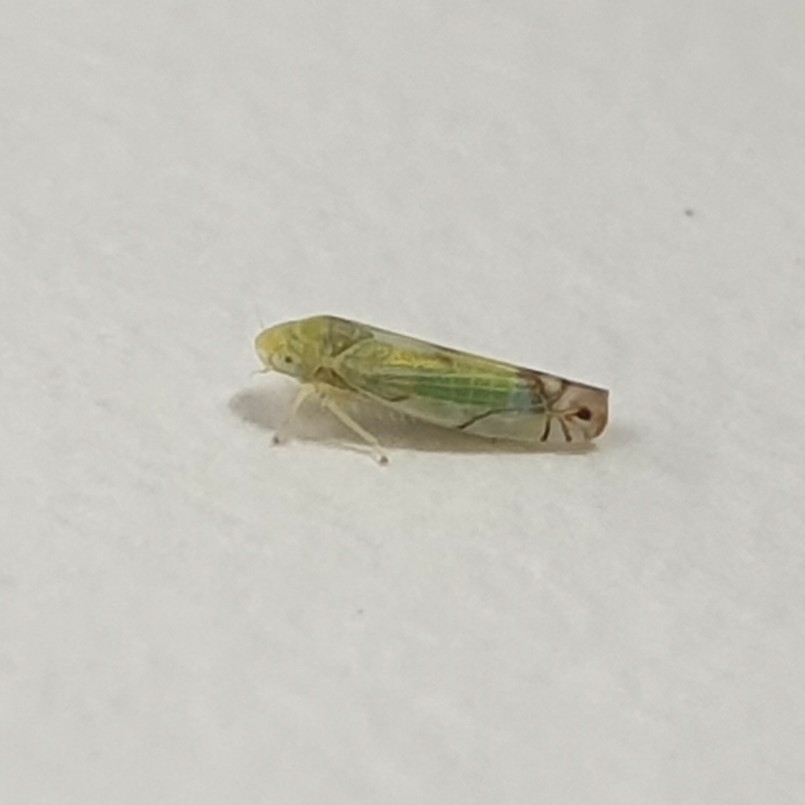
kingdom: Animalia
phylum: Arthropoda
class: Insecta
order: Hemiptera
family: Cicadellidae
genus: Zyginella
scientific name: Zyginella pulchra
